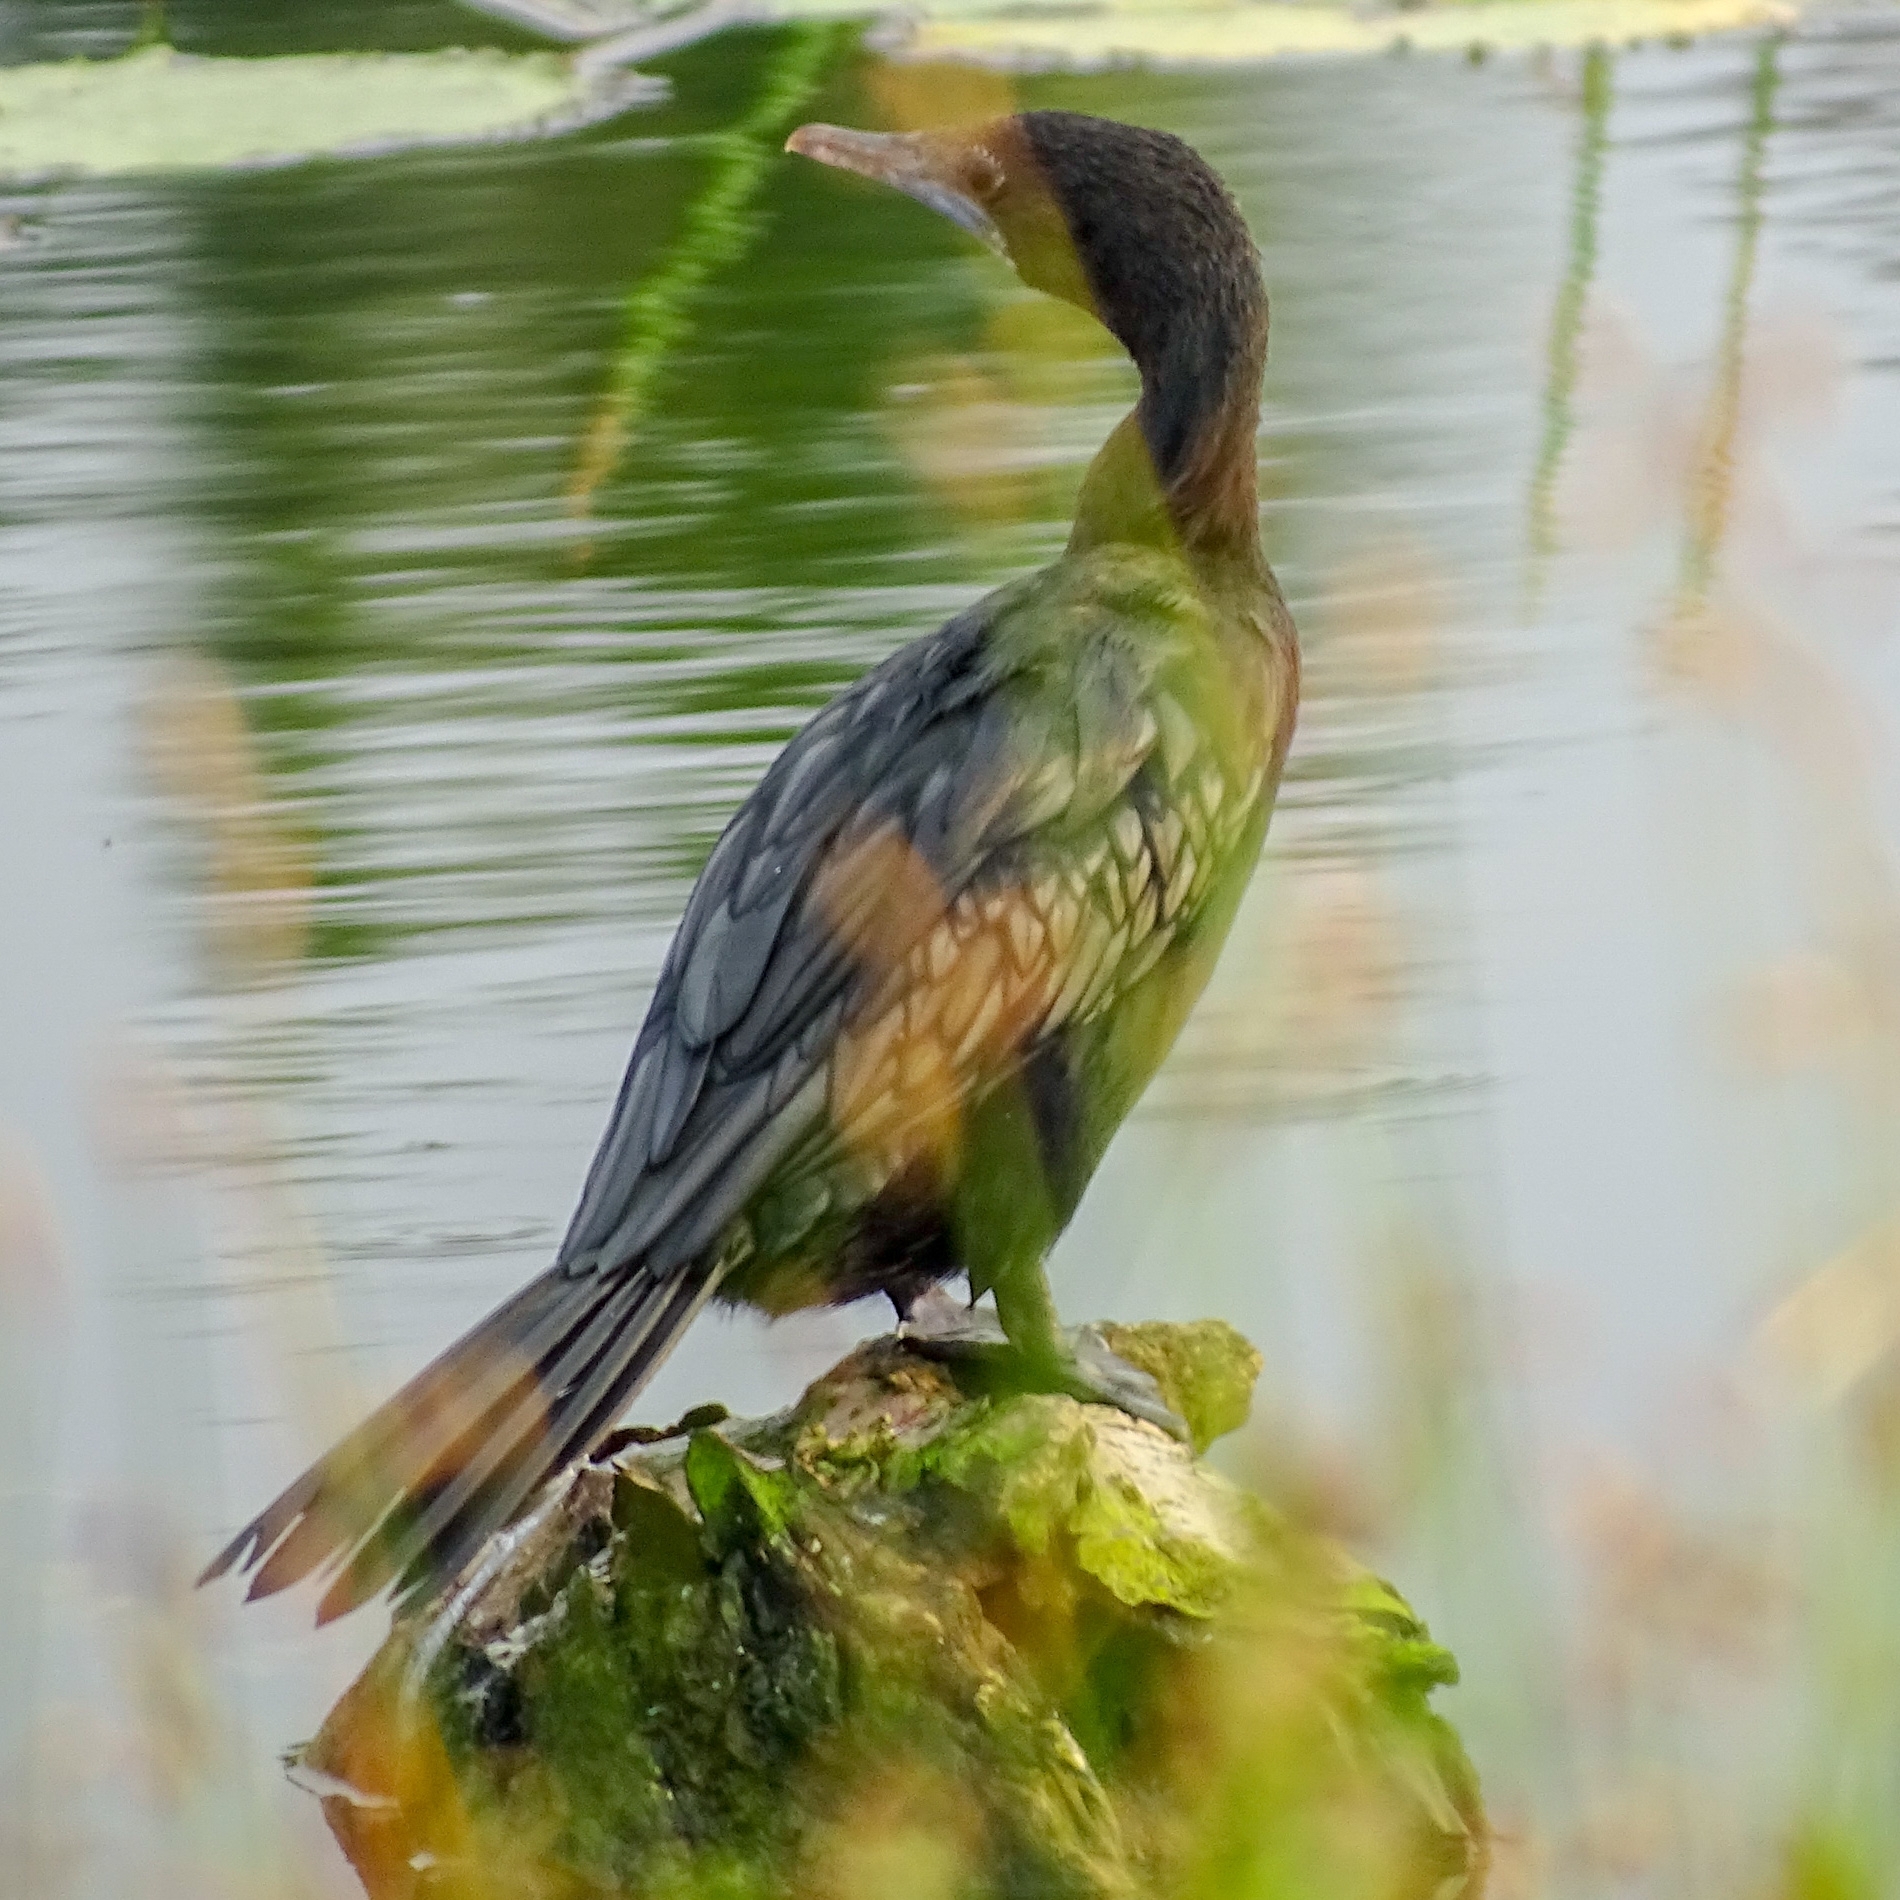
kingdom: Animalia
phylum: Chordata
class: Aves
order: Suliformes
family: Phalacrocoracidae
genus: Microcarbo
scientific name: Microcarbo niger
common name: Little cormorant
